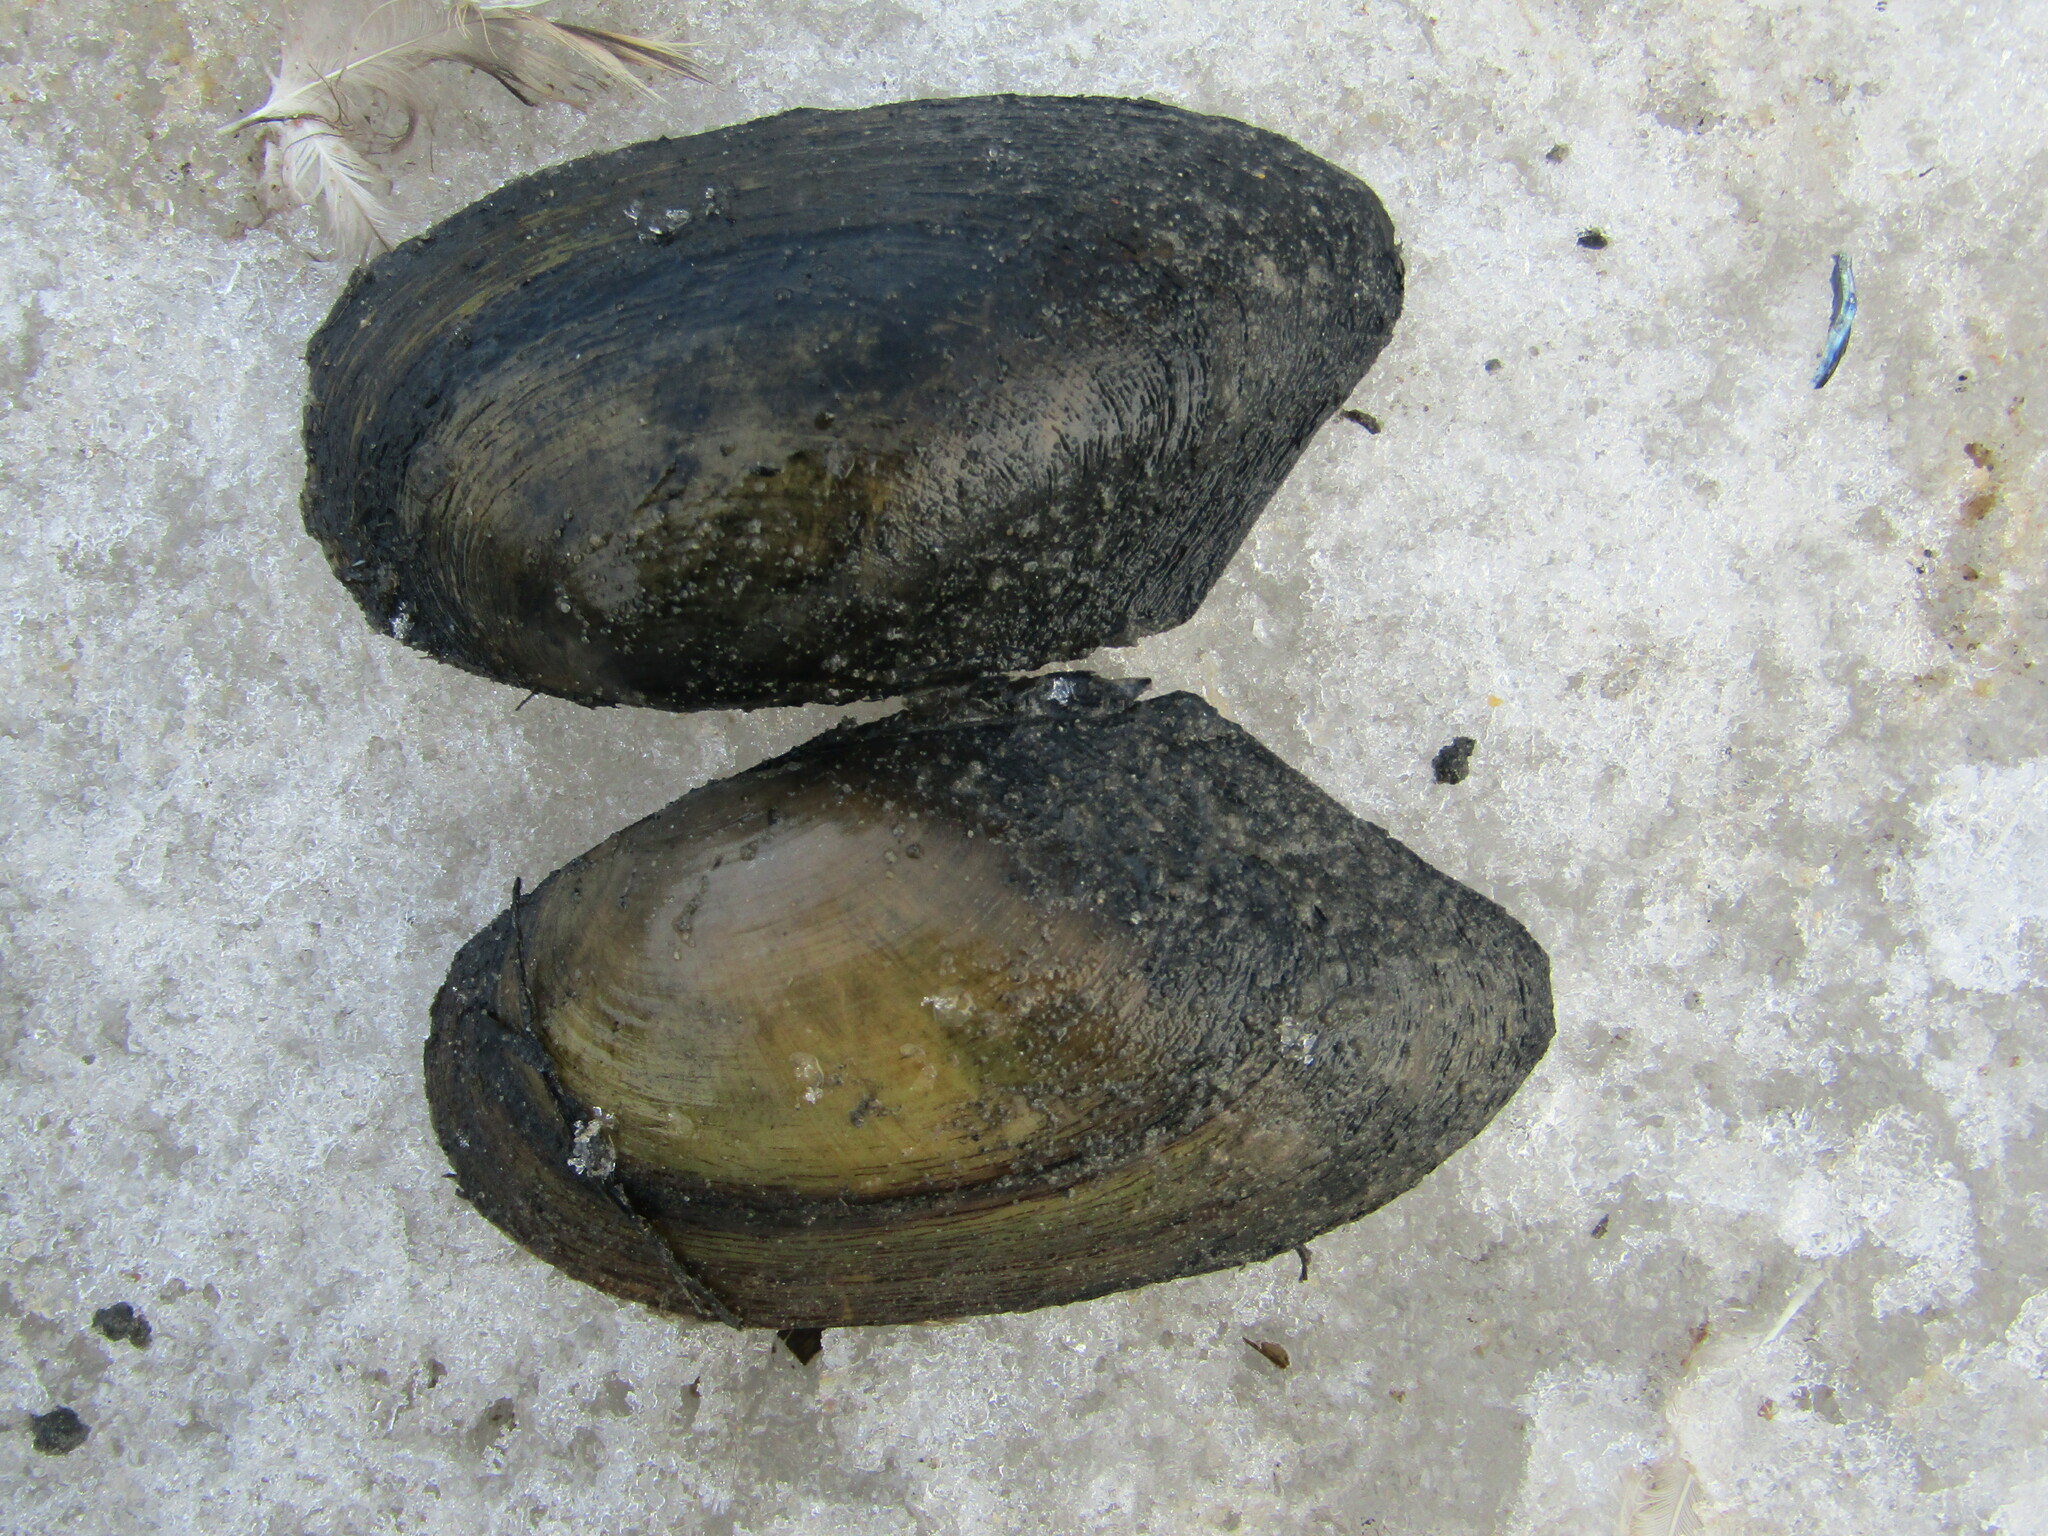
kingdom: Animalia
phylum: Mollusca
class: Bivalvia
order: Unionida
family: Unionidae
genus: Anodonta
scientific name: Anodonta anatina
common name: Duck mussel
